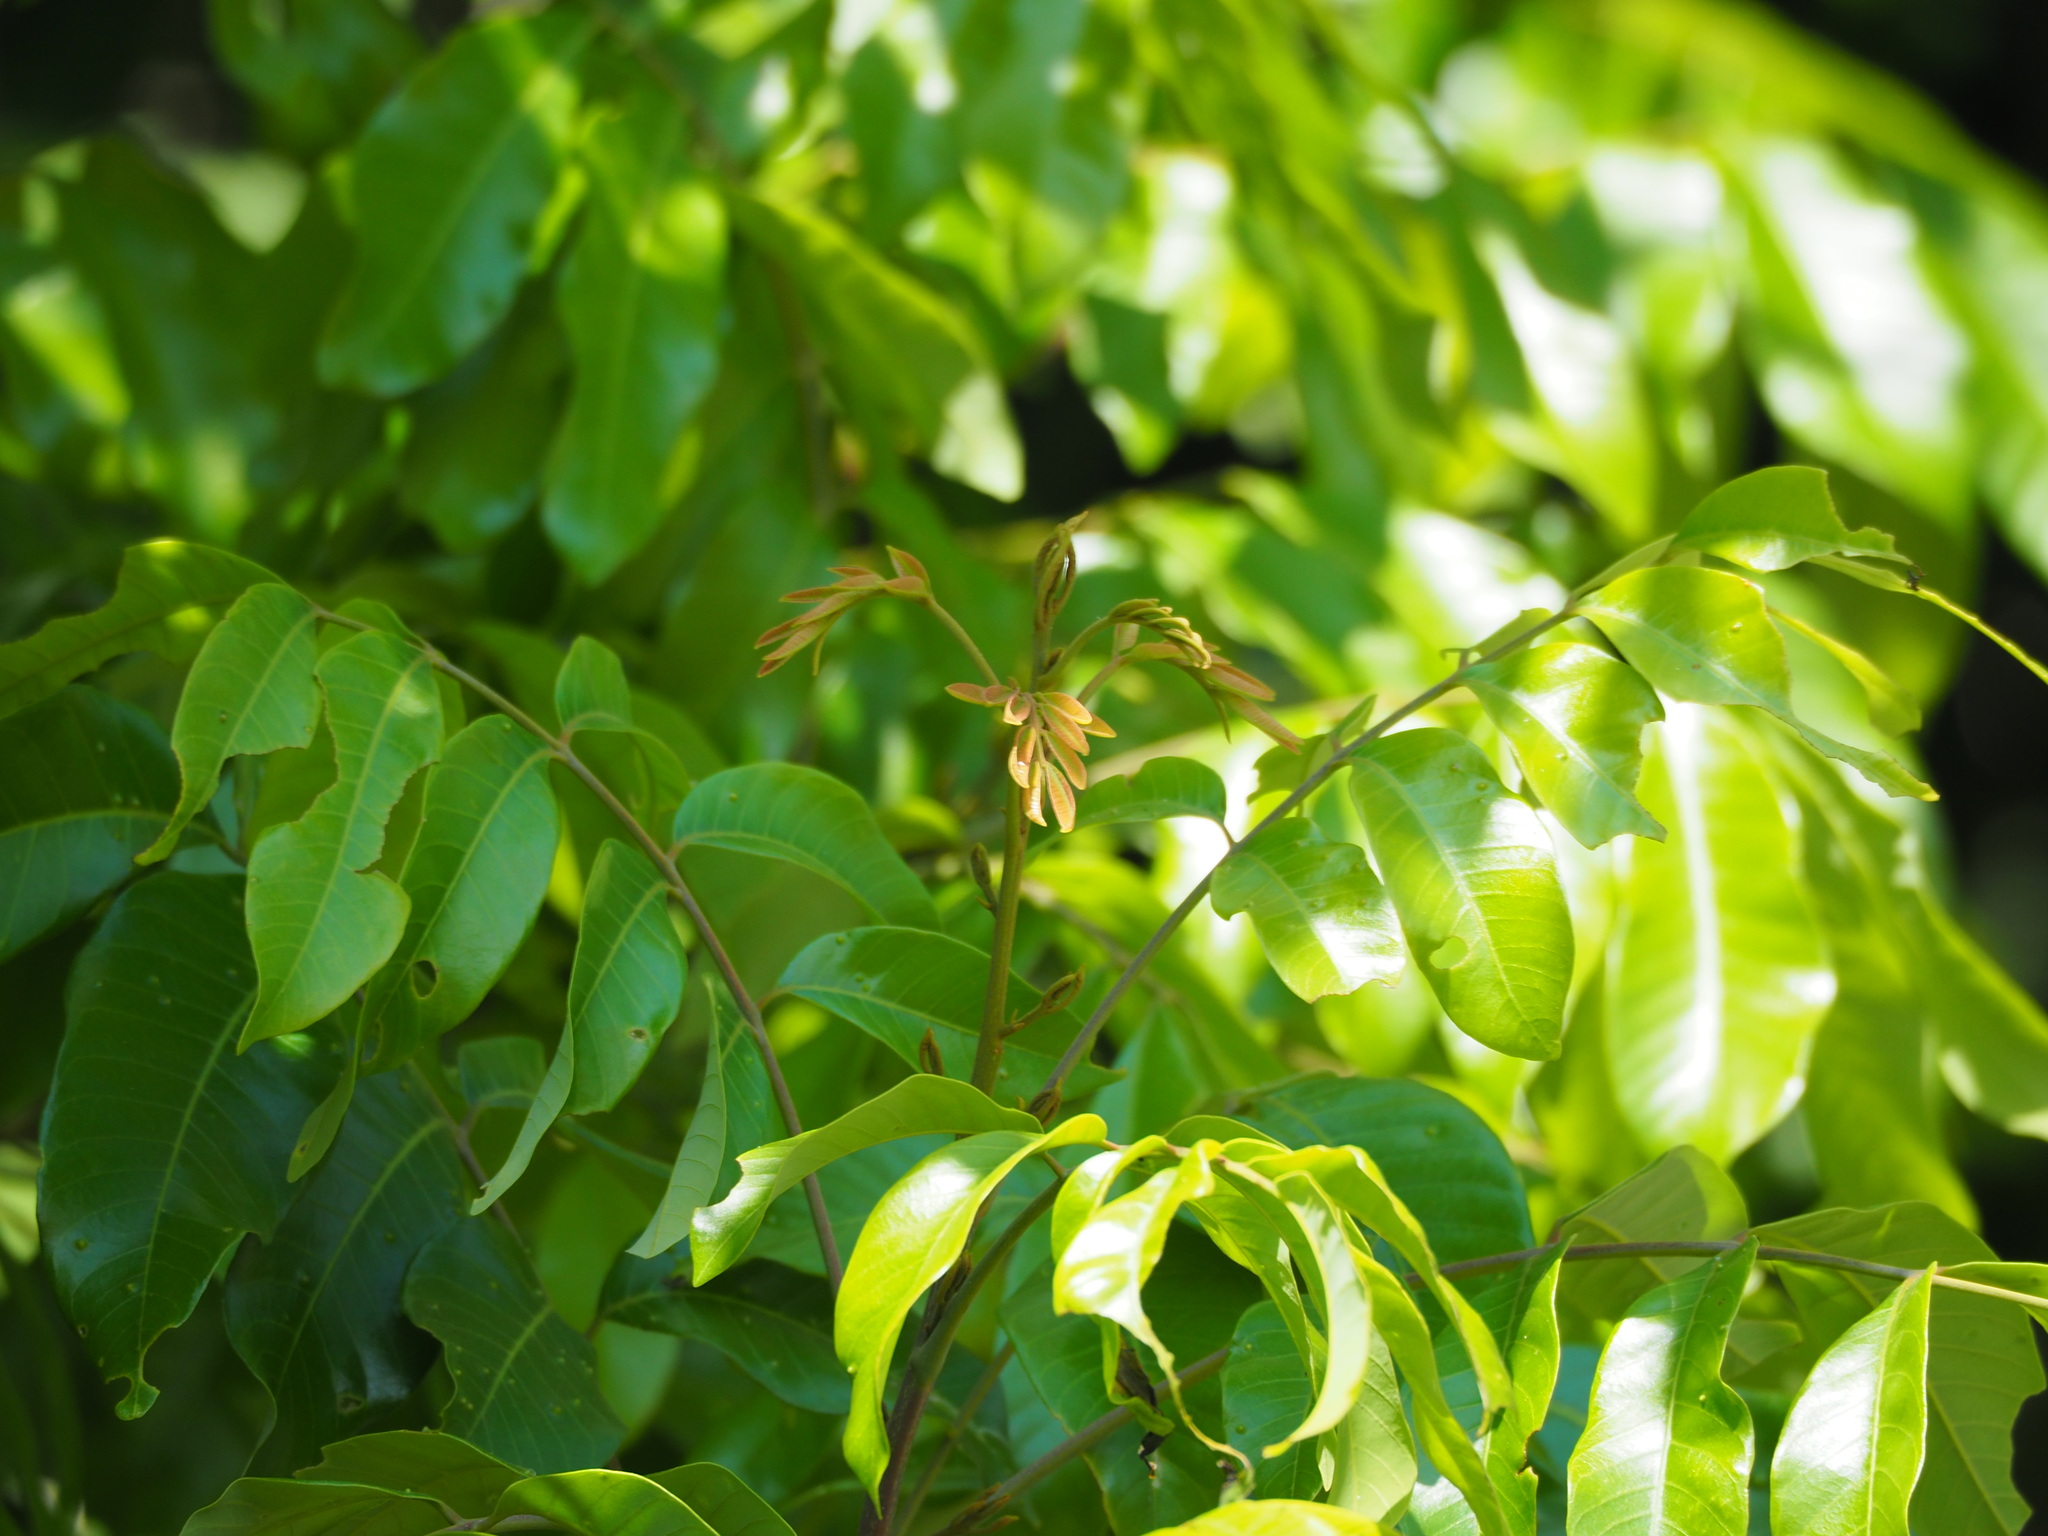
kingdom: Plantae
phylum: Tracheophyta
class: Magnoliopsida
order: Sapindales
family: Sapindaceae
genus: Dimocarpus
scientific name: Dimocarpus longan
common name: Longan
